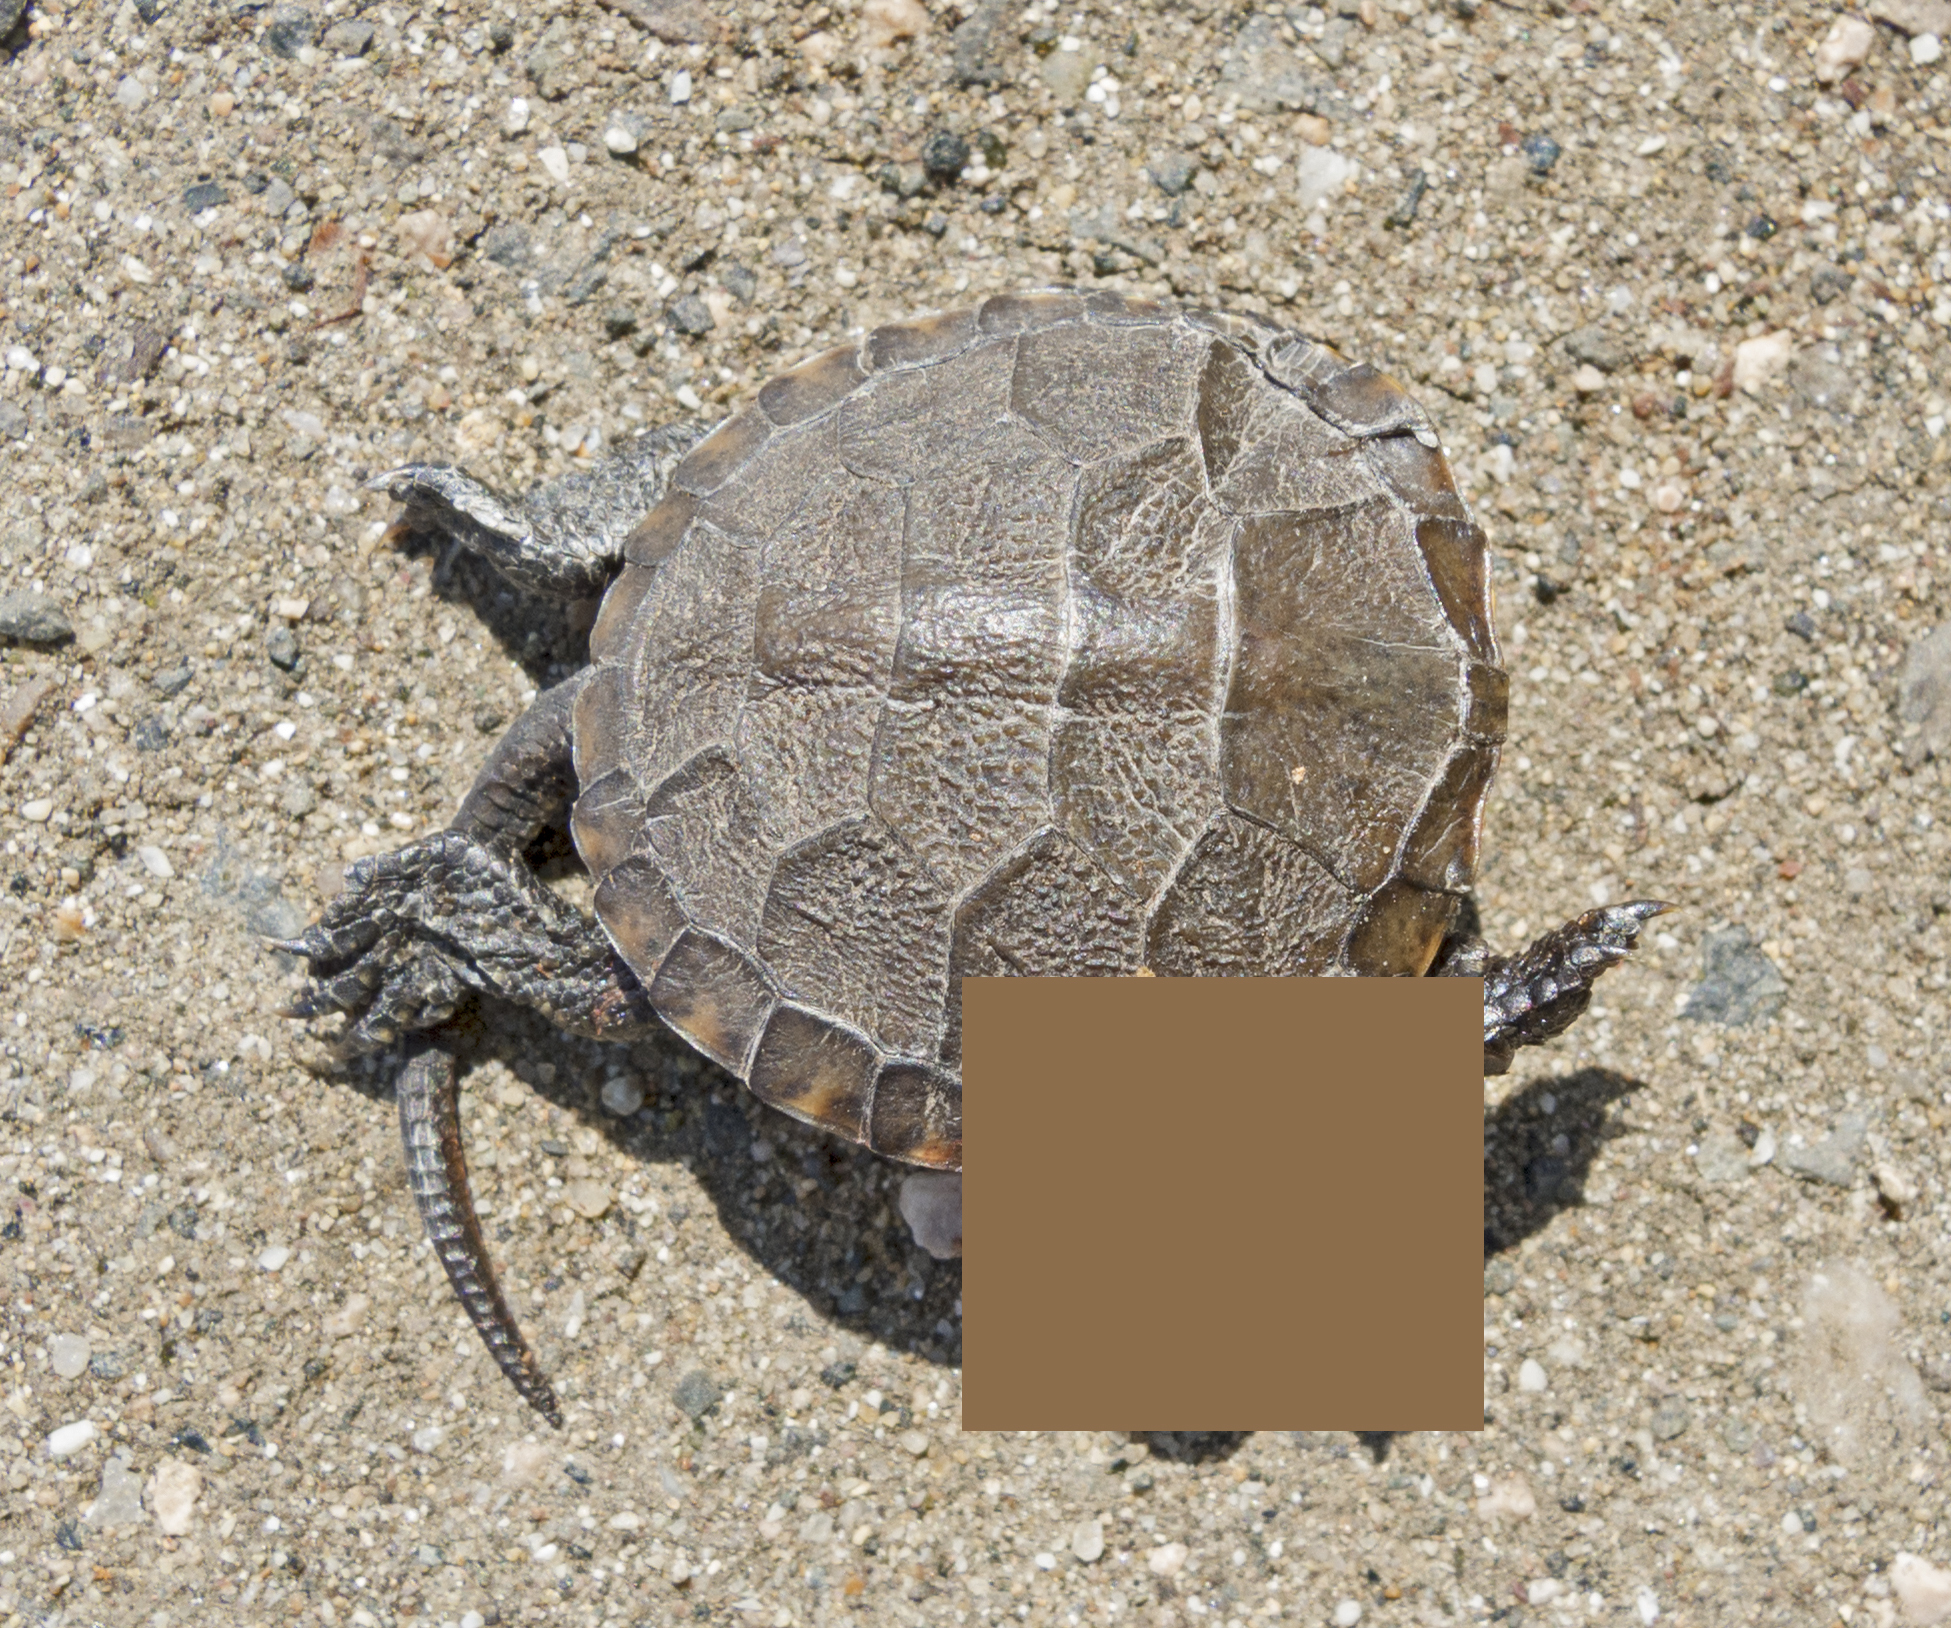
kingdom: Animalia
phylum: Chordata
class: Testudines
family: Emydidae
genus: Emys
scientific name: Emys orbicularis
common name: European pond turtle
